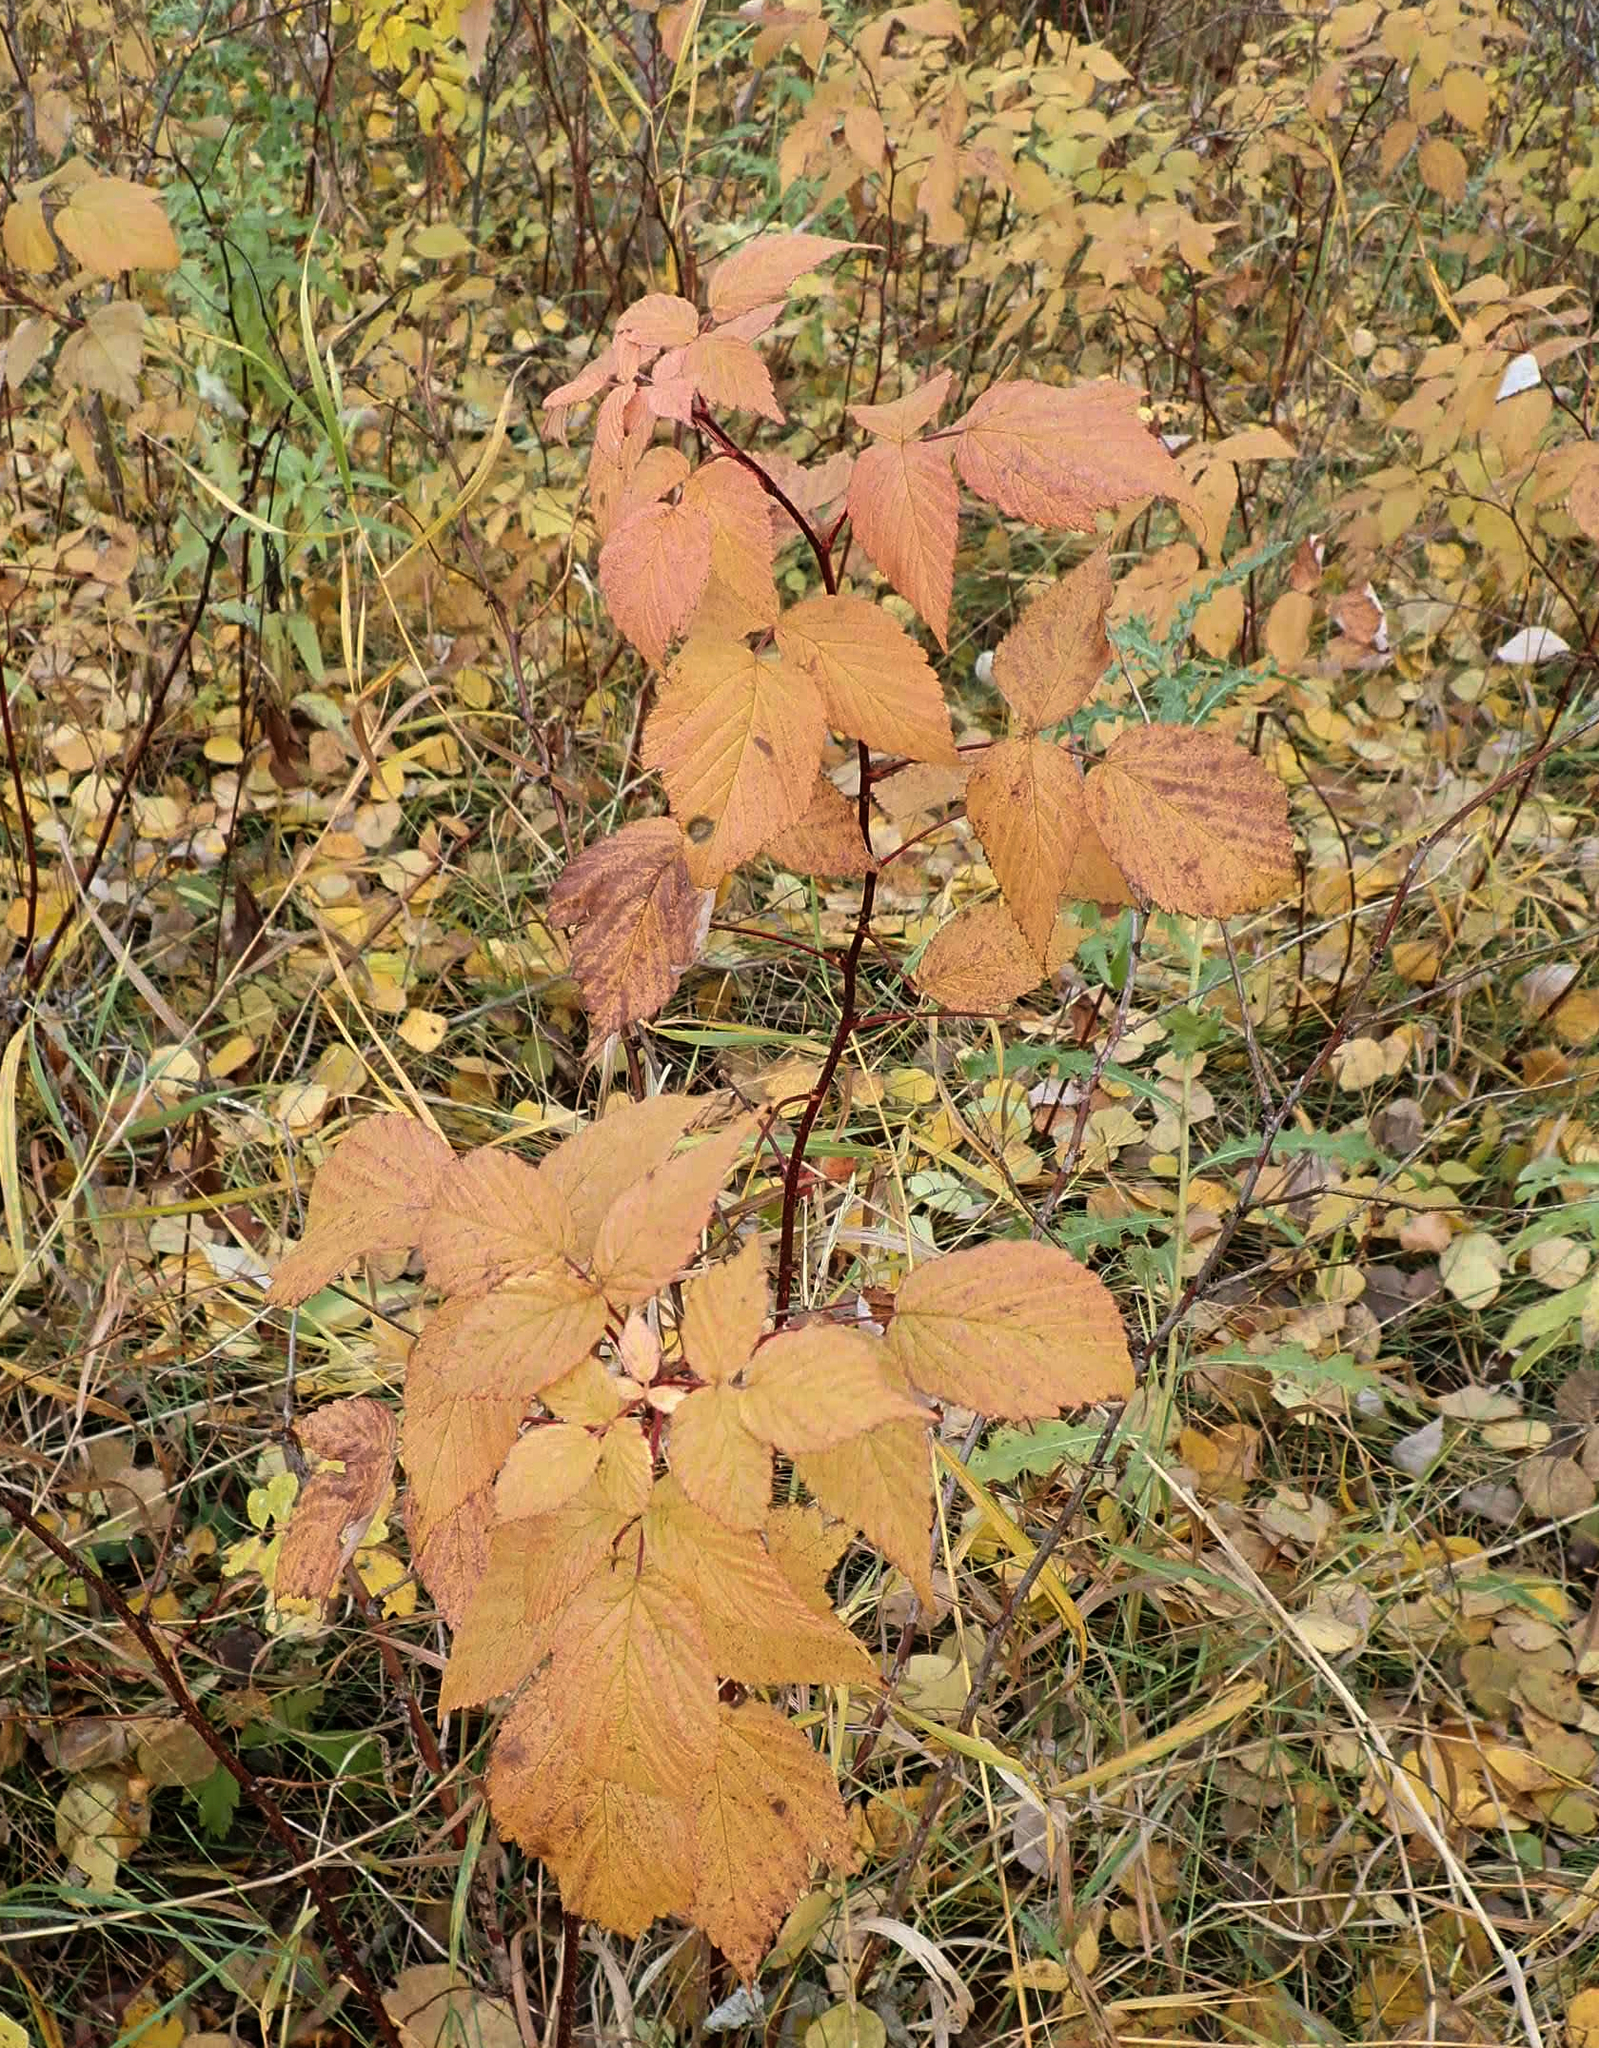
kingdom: Plantae
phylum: Tracheophyta
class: Magnoliopsida
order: Rosales
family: Rosaceae
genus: Rubus
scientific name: Rubus idaeus
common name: Raspberry
